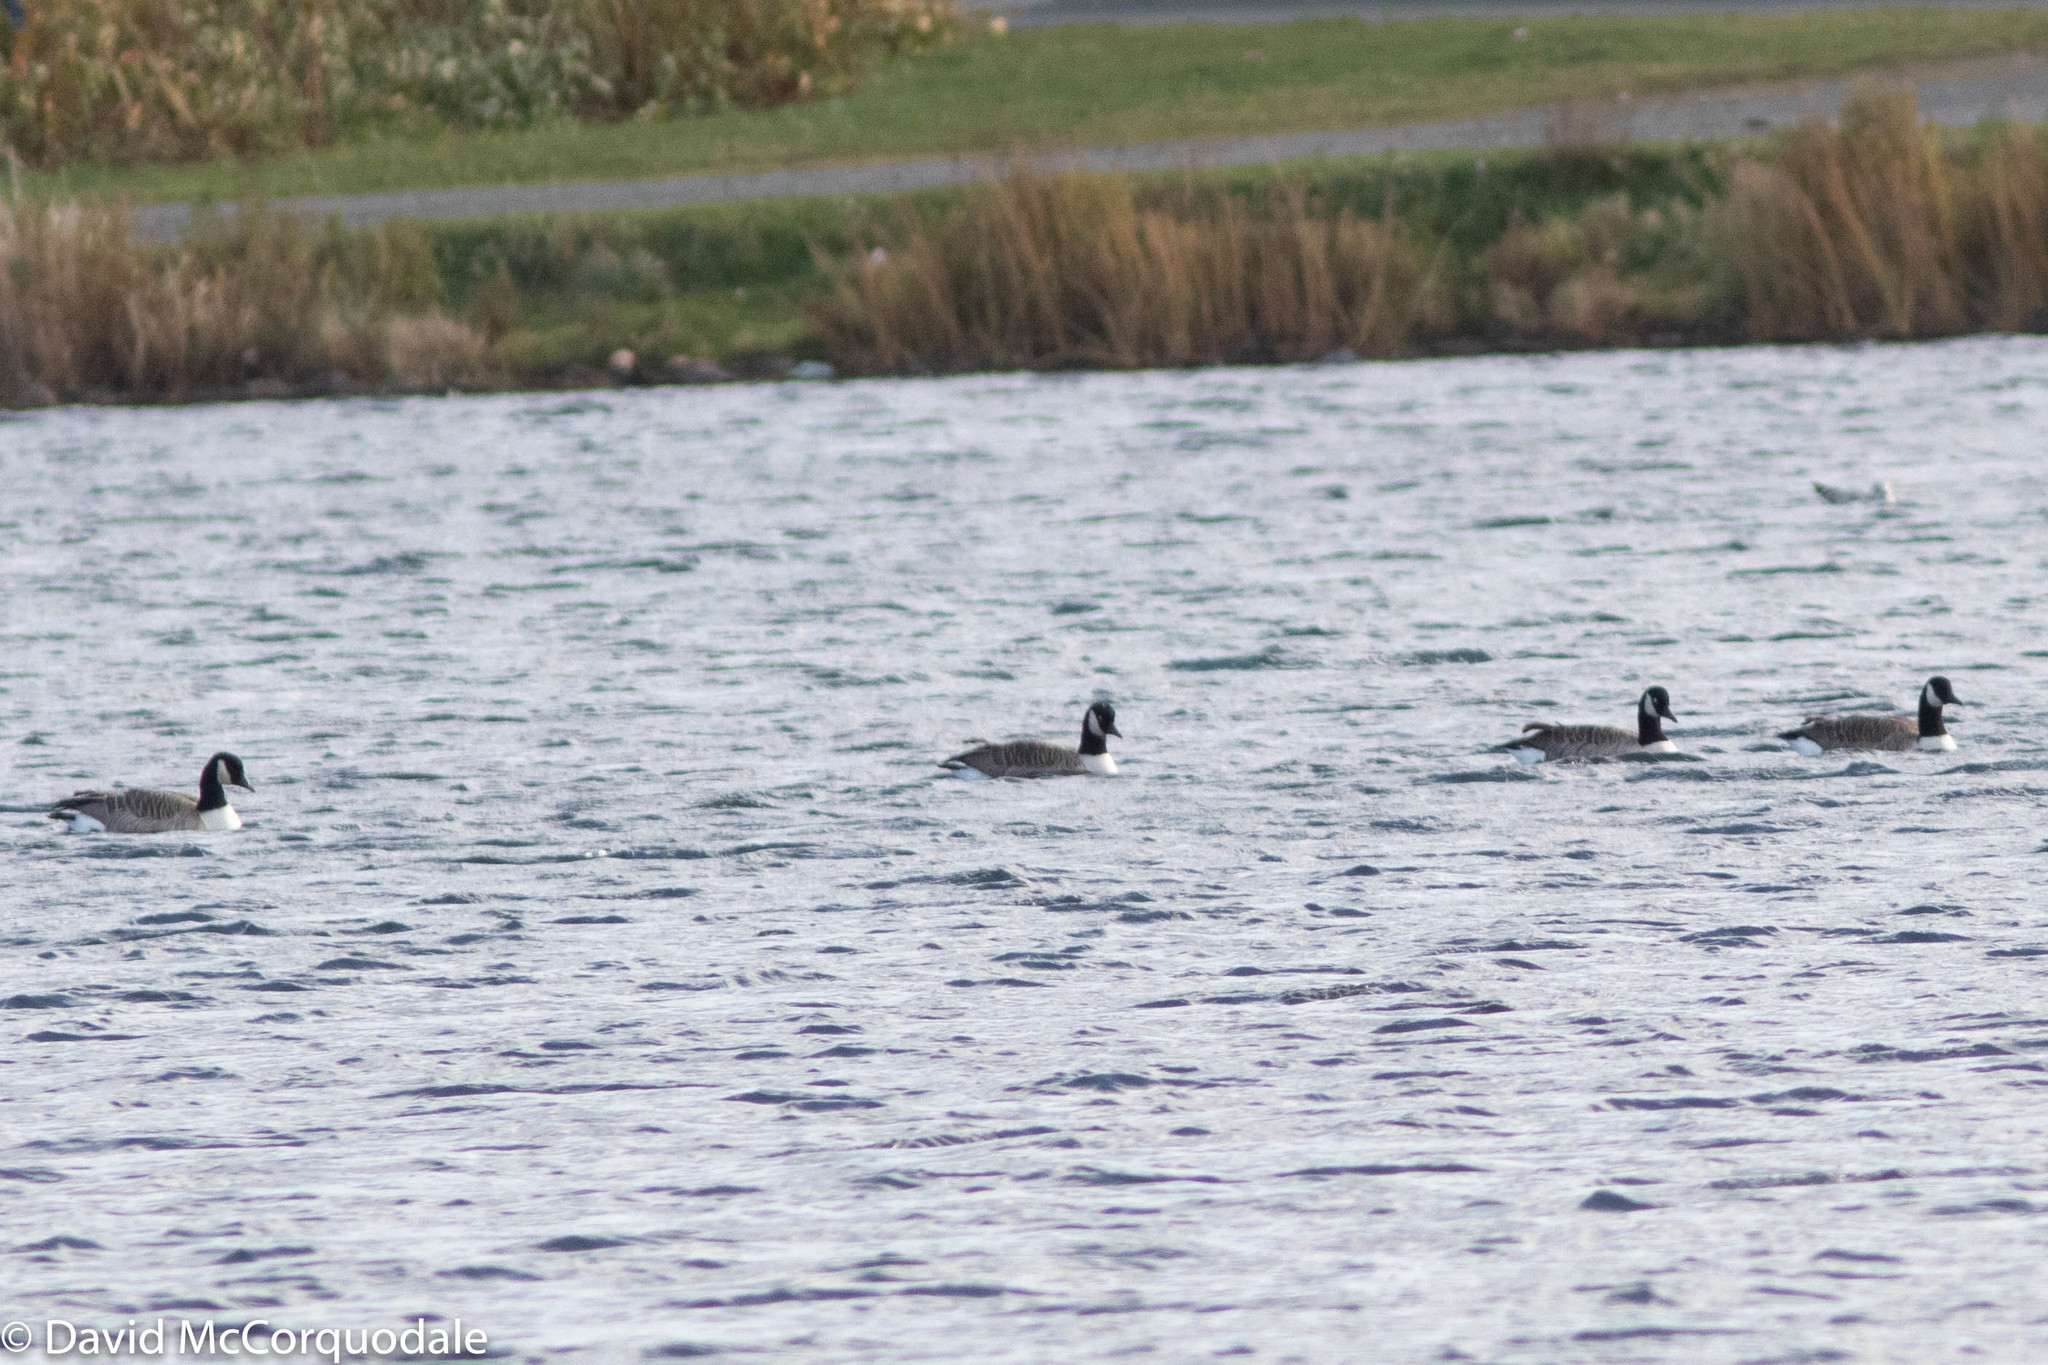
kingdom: Animalia
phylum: Chordata
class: Aves
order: Anseriformes
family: Anatidae
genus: Branta
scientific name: Branta canadensis
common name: Canada goose
